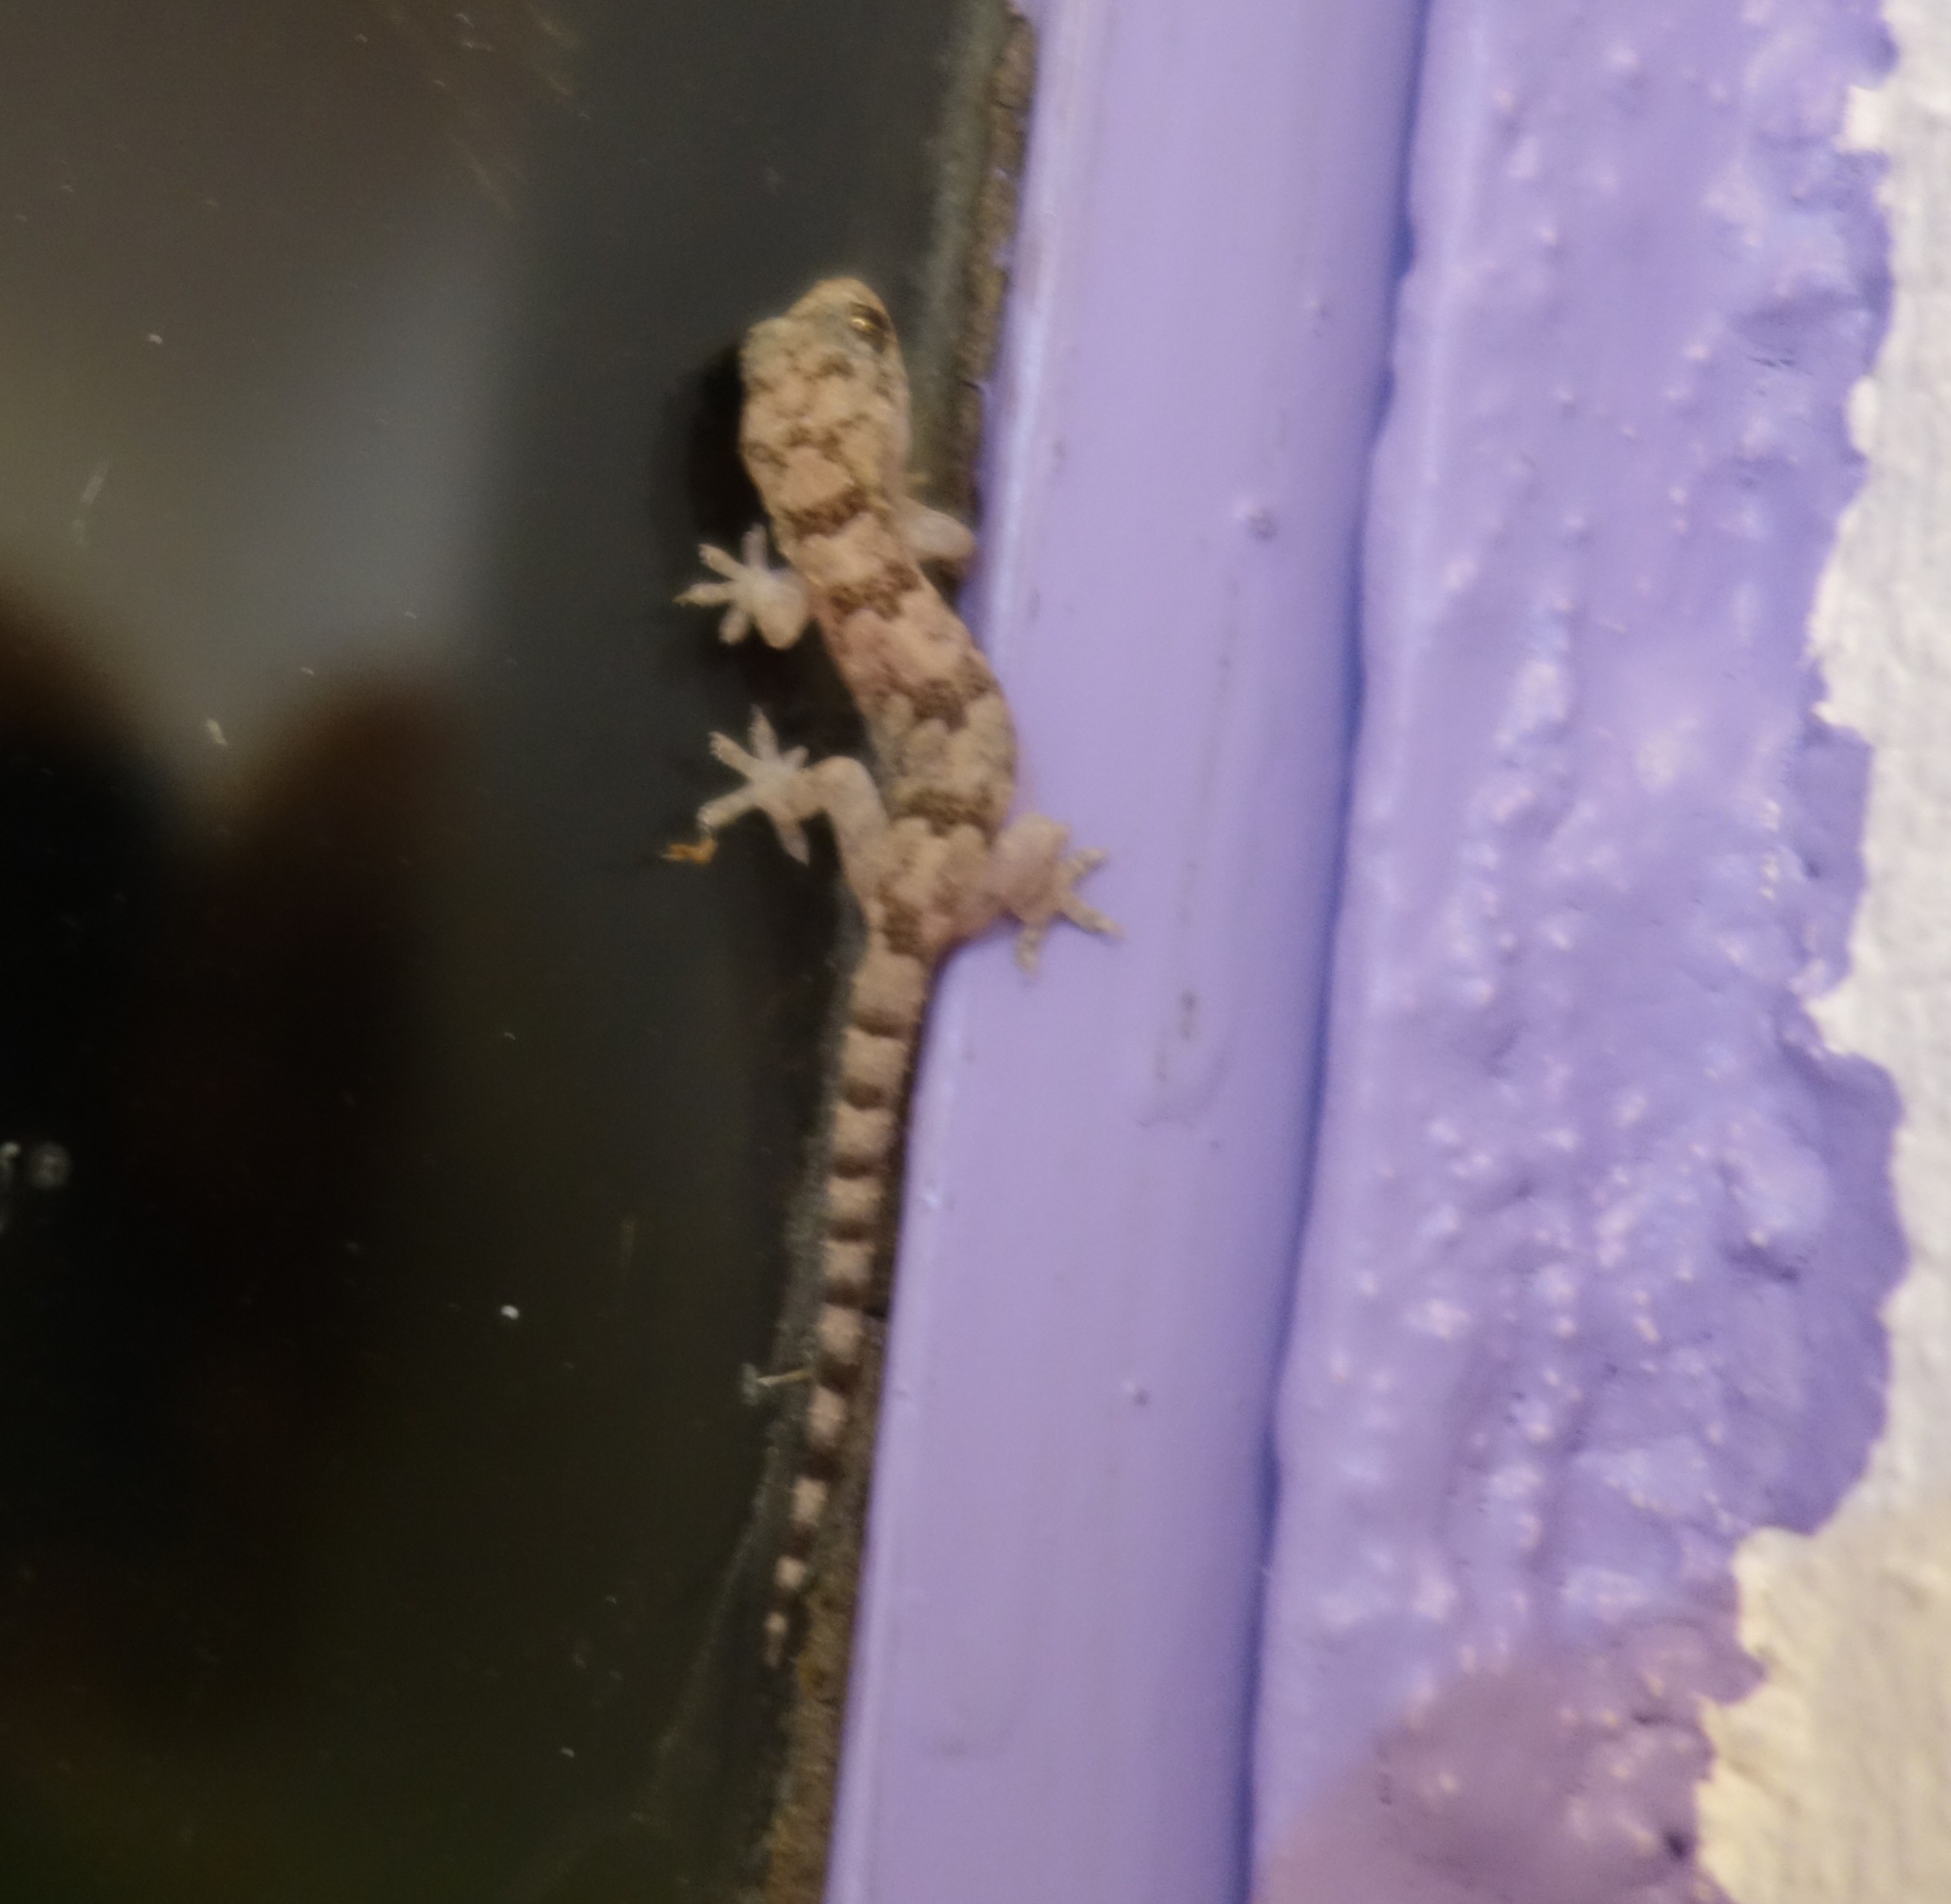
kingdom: Animalia
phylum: Chordata
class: Squamata
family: Gekkonidae
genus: Hemidactylus
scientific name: Hemidactylus mabouia
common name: House gecko
